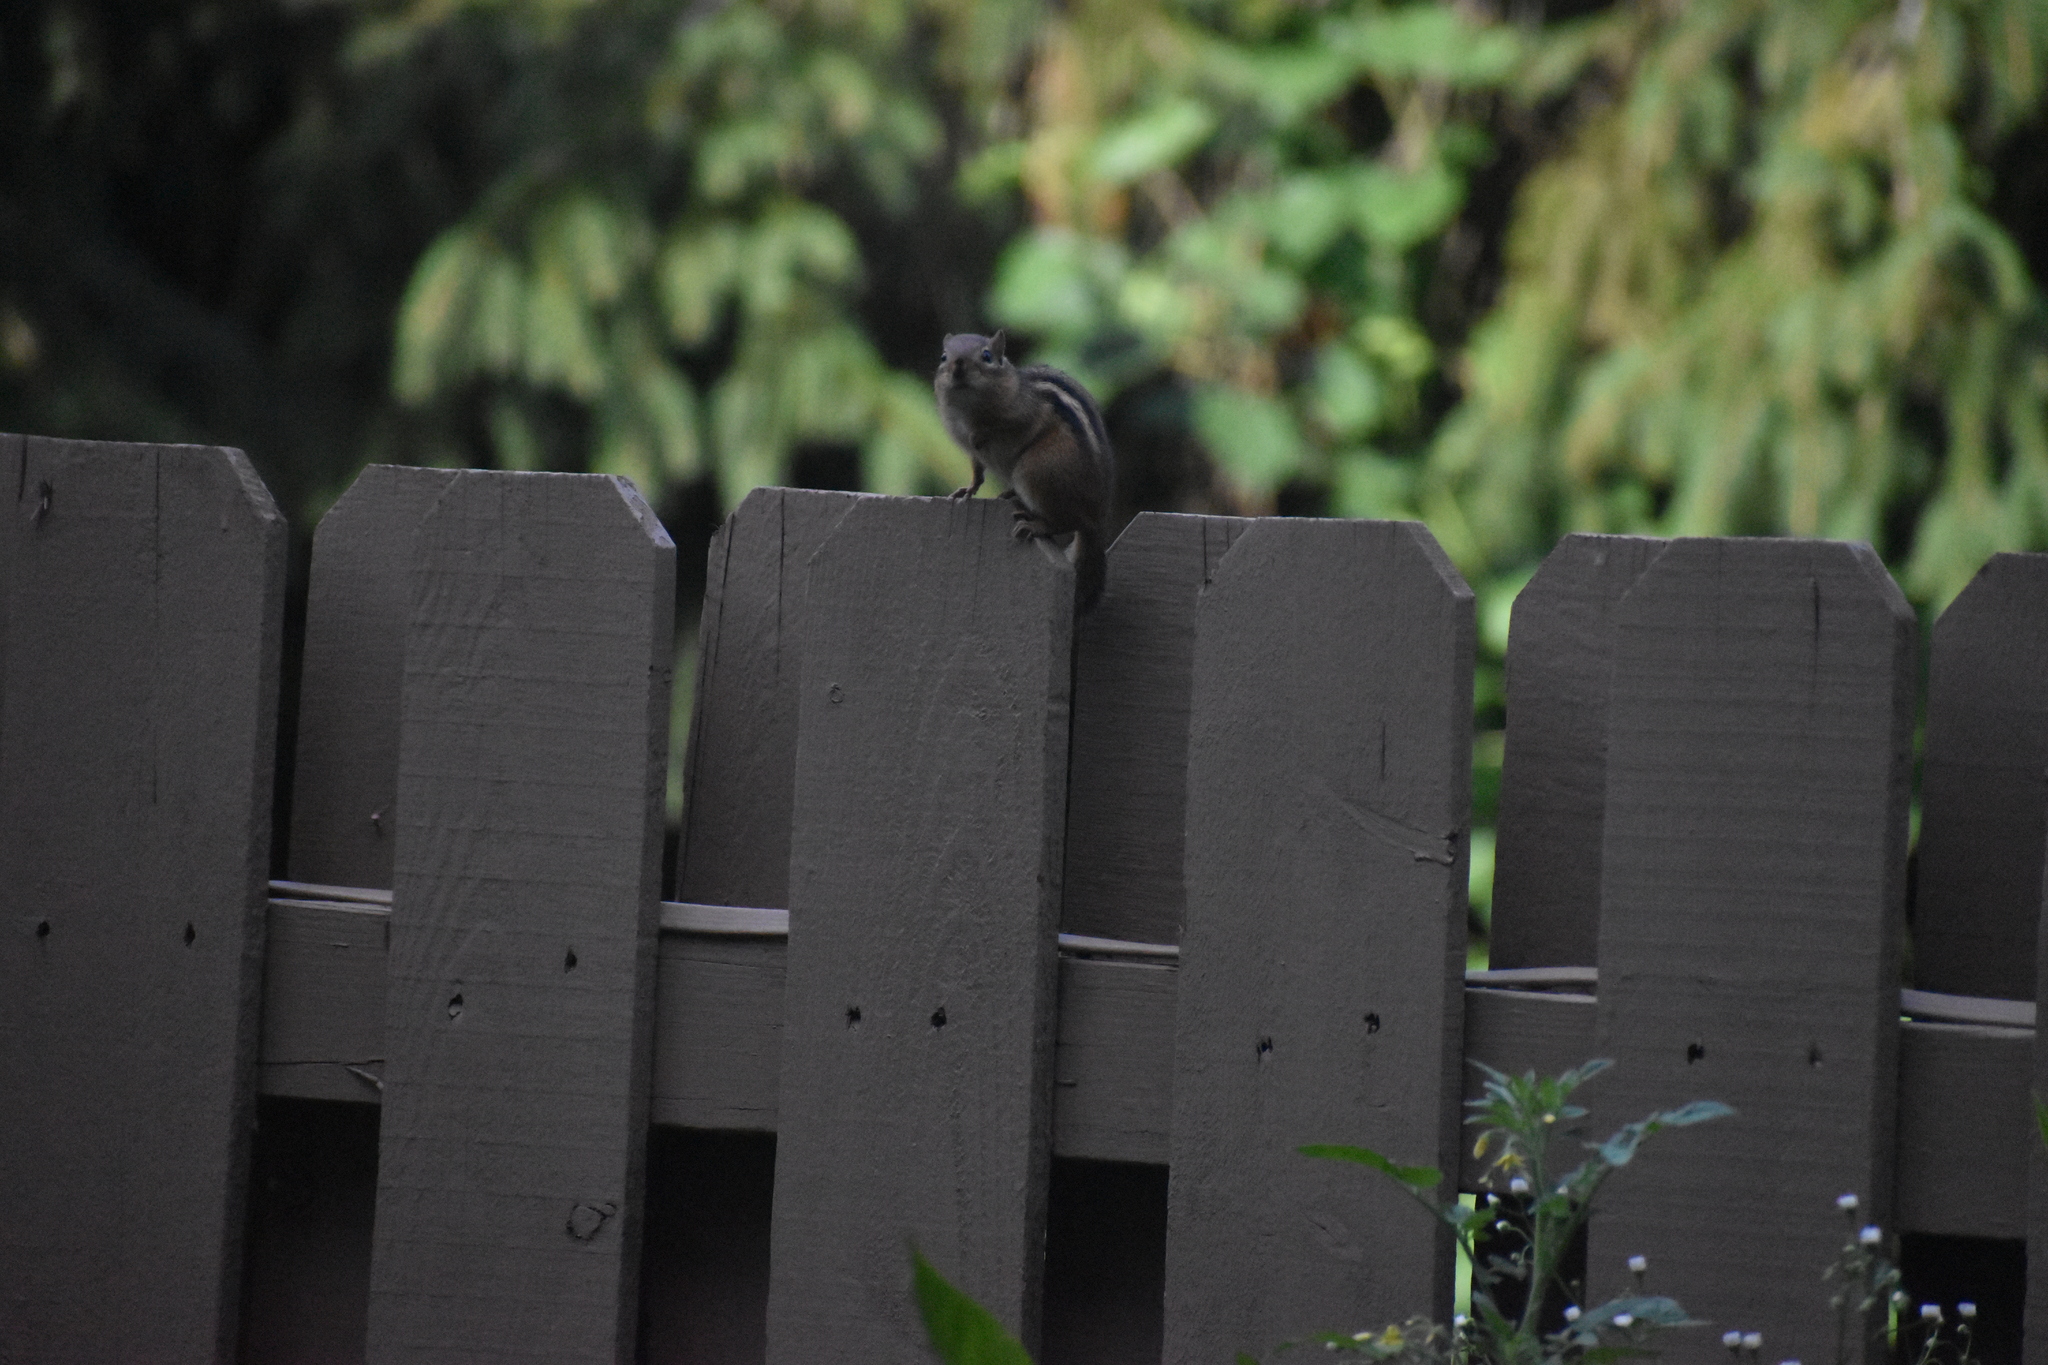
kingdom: Animalia
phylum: Chordata
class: Mammalia
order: Rodentia
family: Sciuridae
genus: Tamias
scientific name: Tamias striatus
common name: Eastern chipmunk
